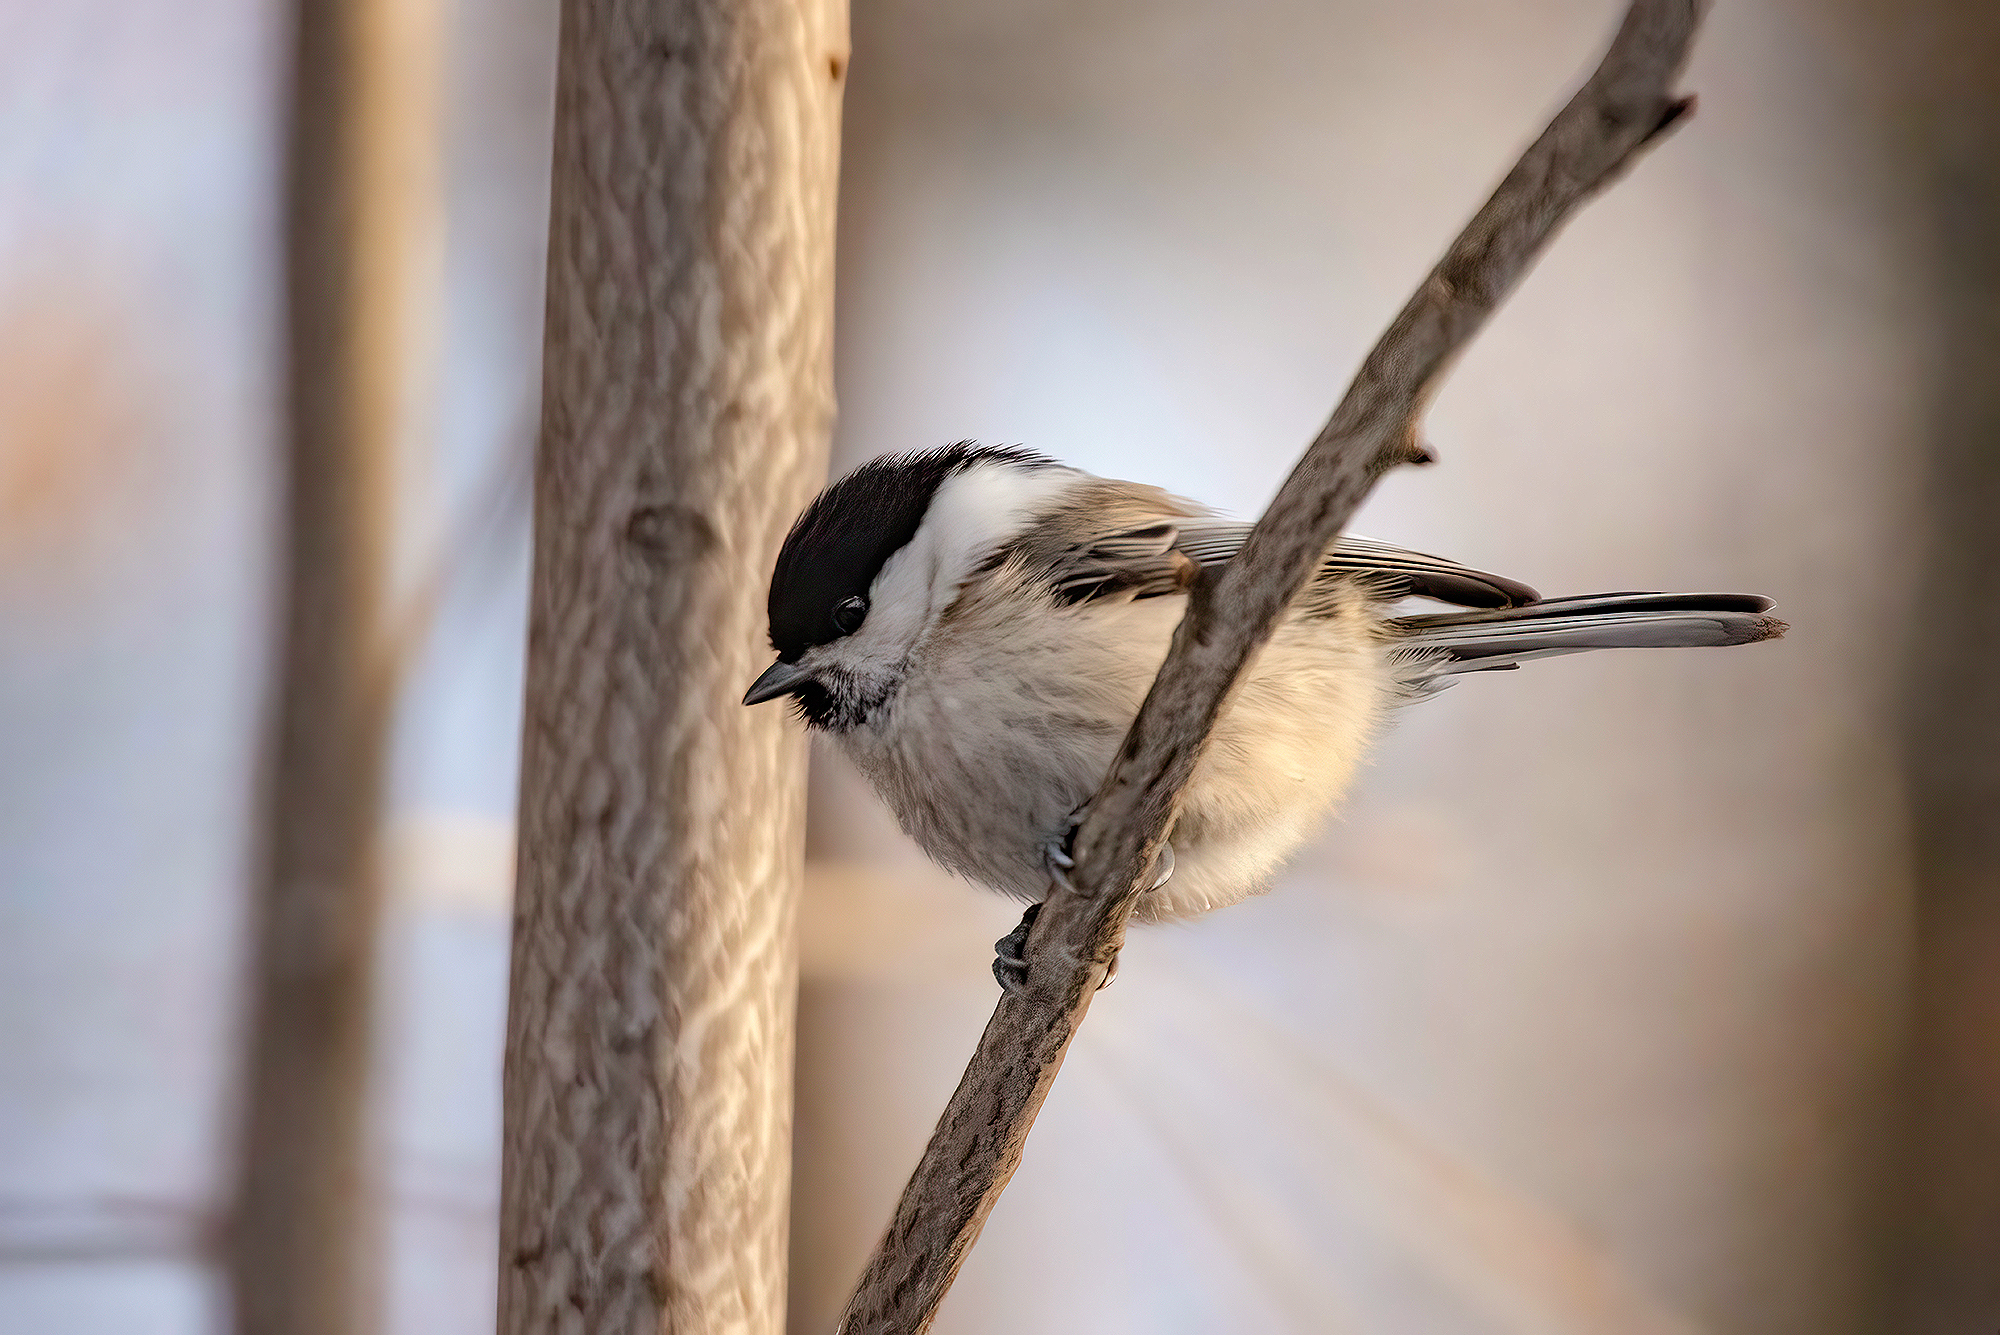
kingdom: Animalia
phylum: Chordata
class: Aves
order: Passeriformes
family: Paridae
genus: Poecile
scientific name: Poecile montanus
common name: Willow tit
